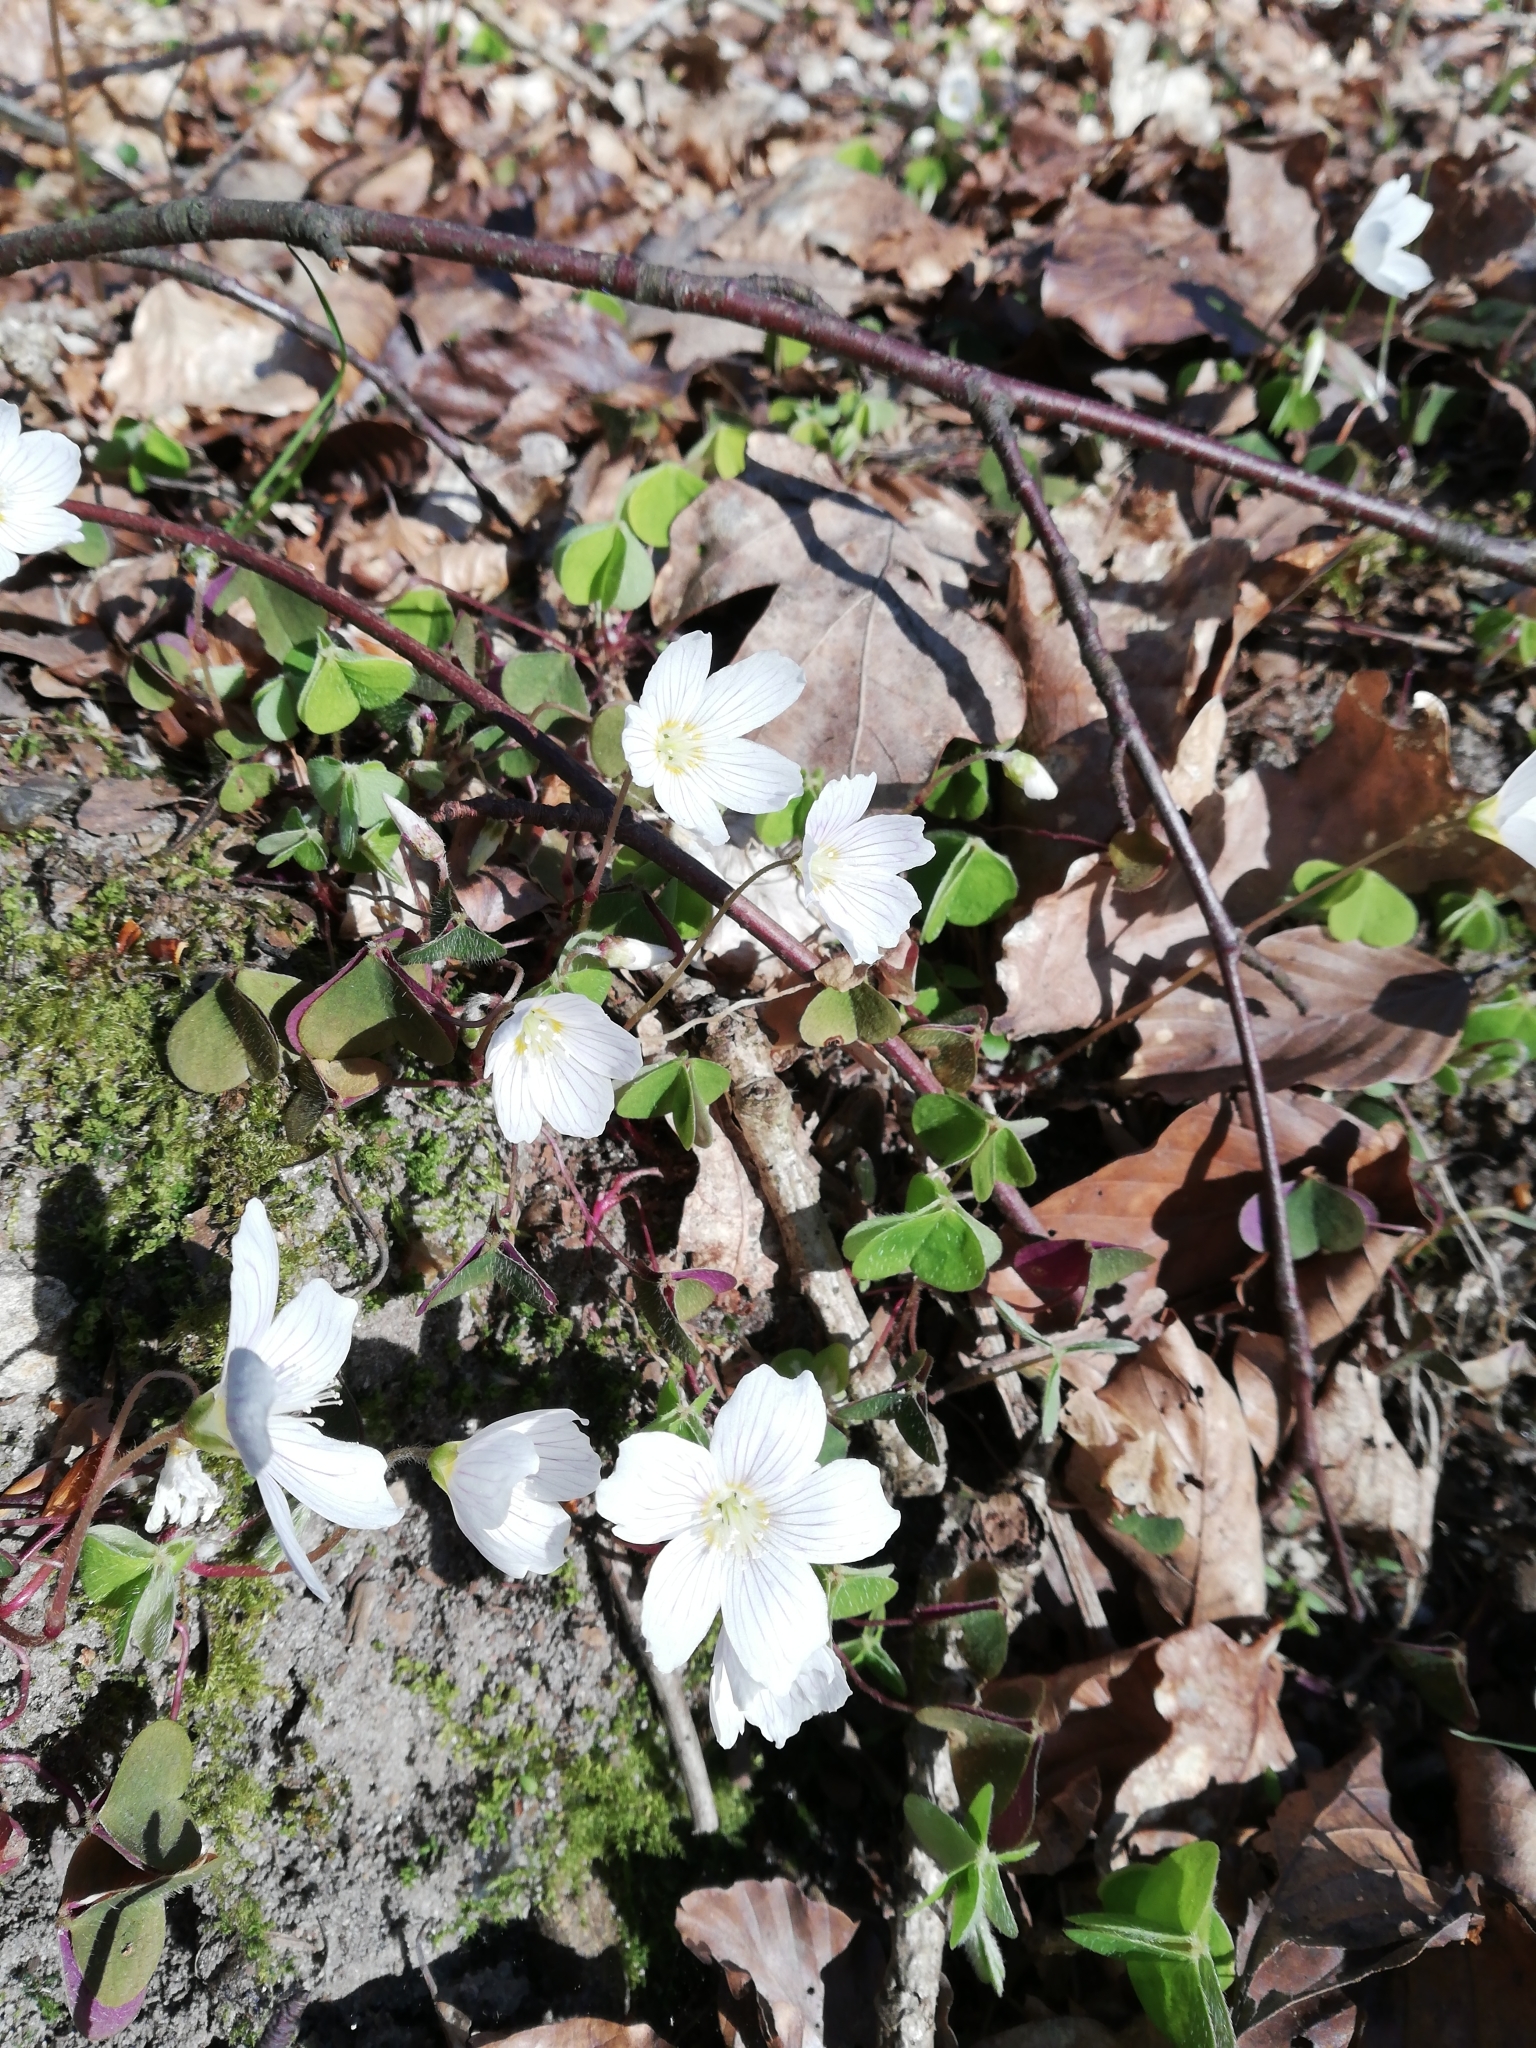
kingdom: Plantae
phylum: Tracheophyta
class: Magnoliopsida
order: Oxalidales
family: Oxalidaceae
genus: Oxalis
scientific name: Oxalis acetosella
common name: Wood-sorrel
